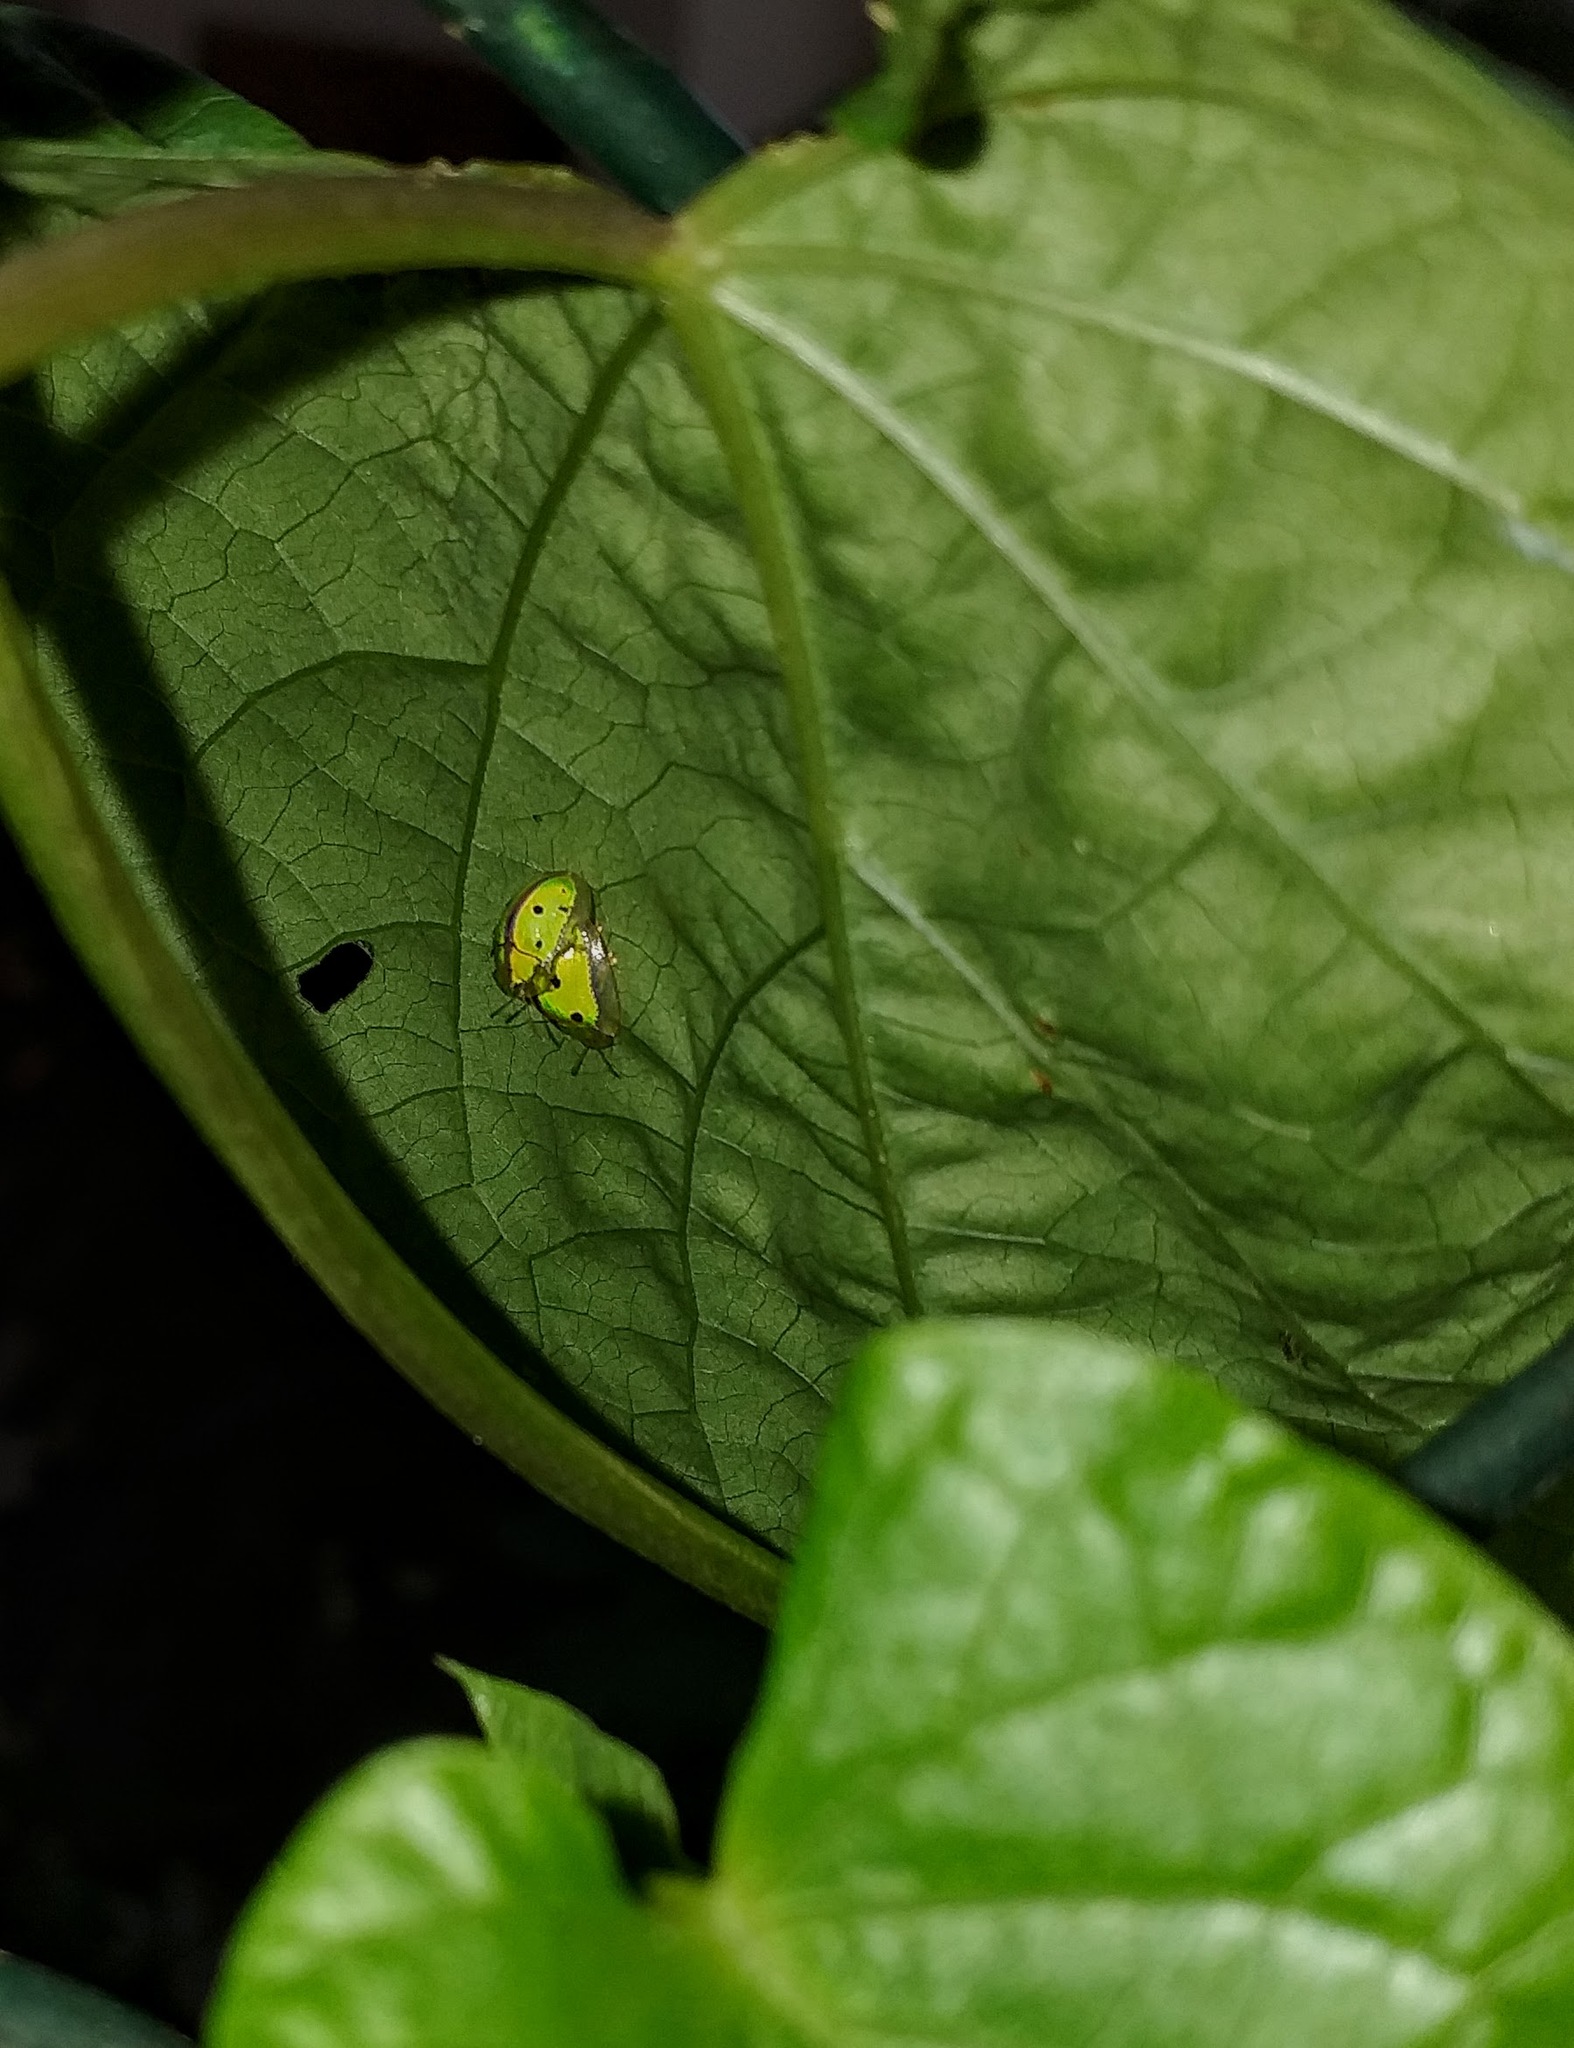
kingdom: Animalia
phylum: Arthropoda
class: Insecta
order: Coleoptera
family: Chrysomelidae
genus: Chiridopsis
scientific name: Chiridopsis bipunctata
